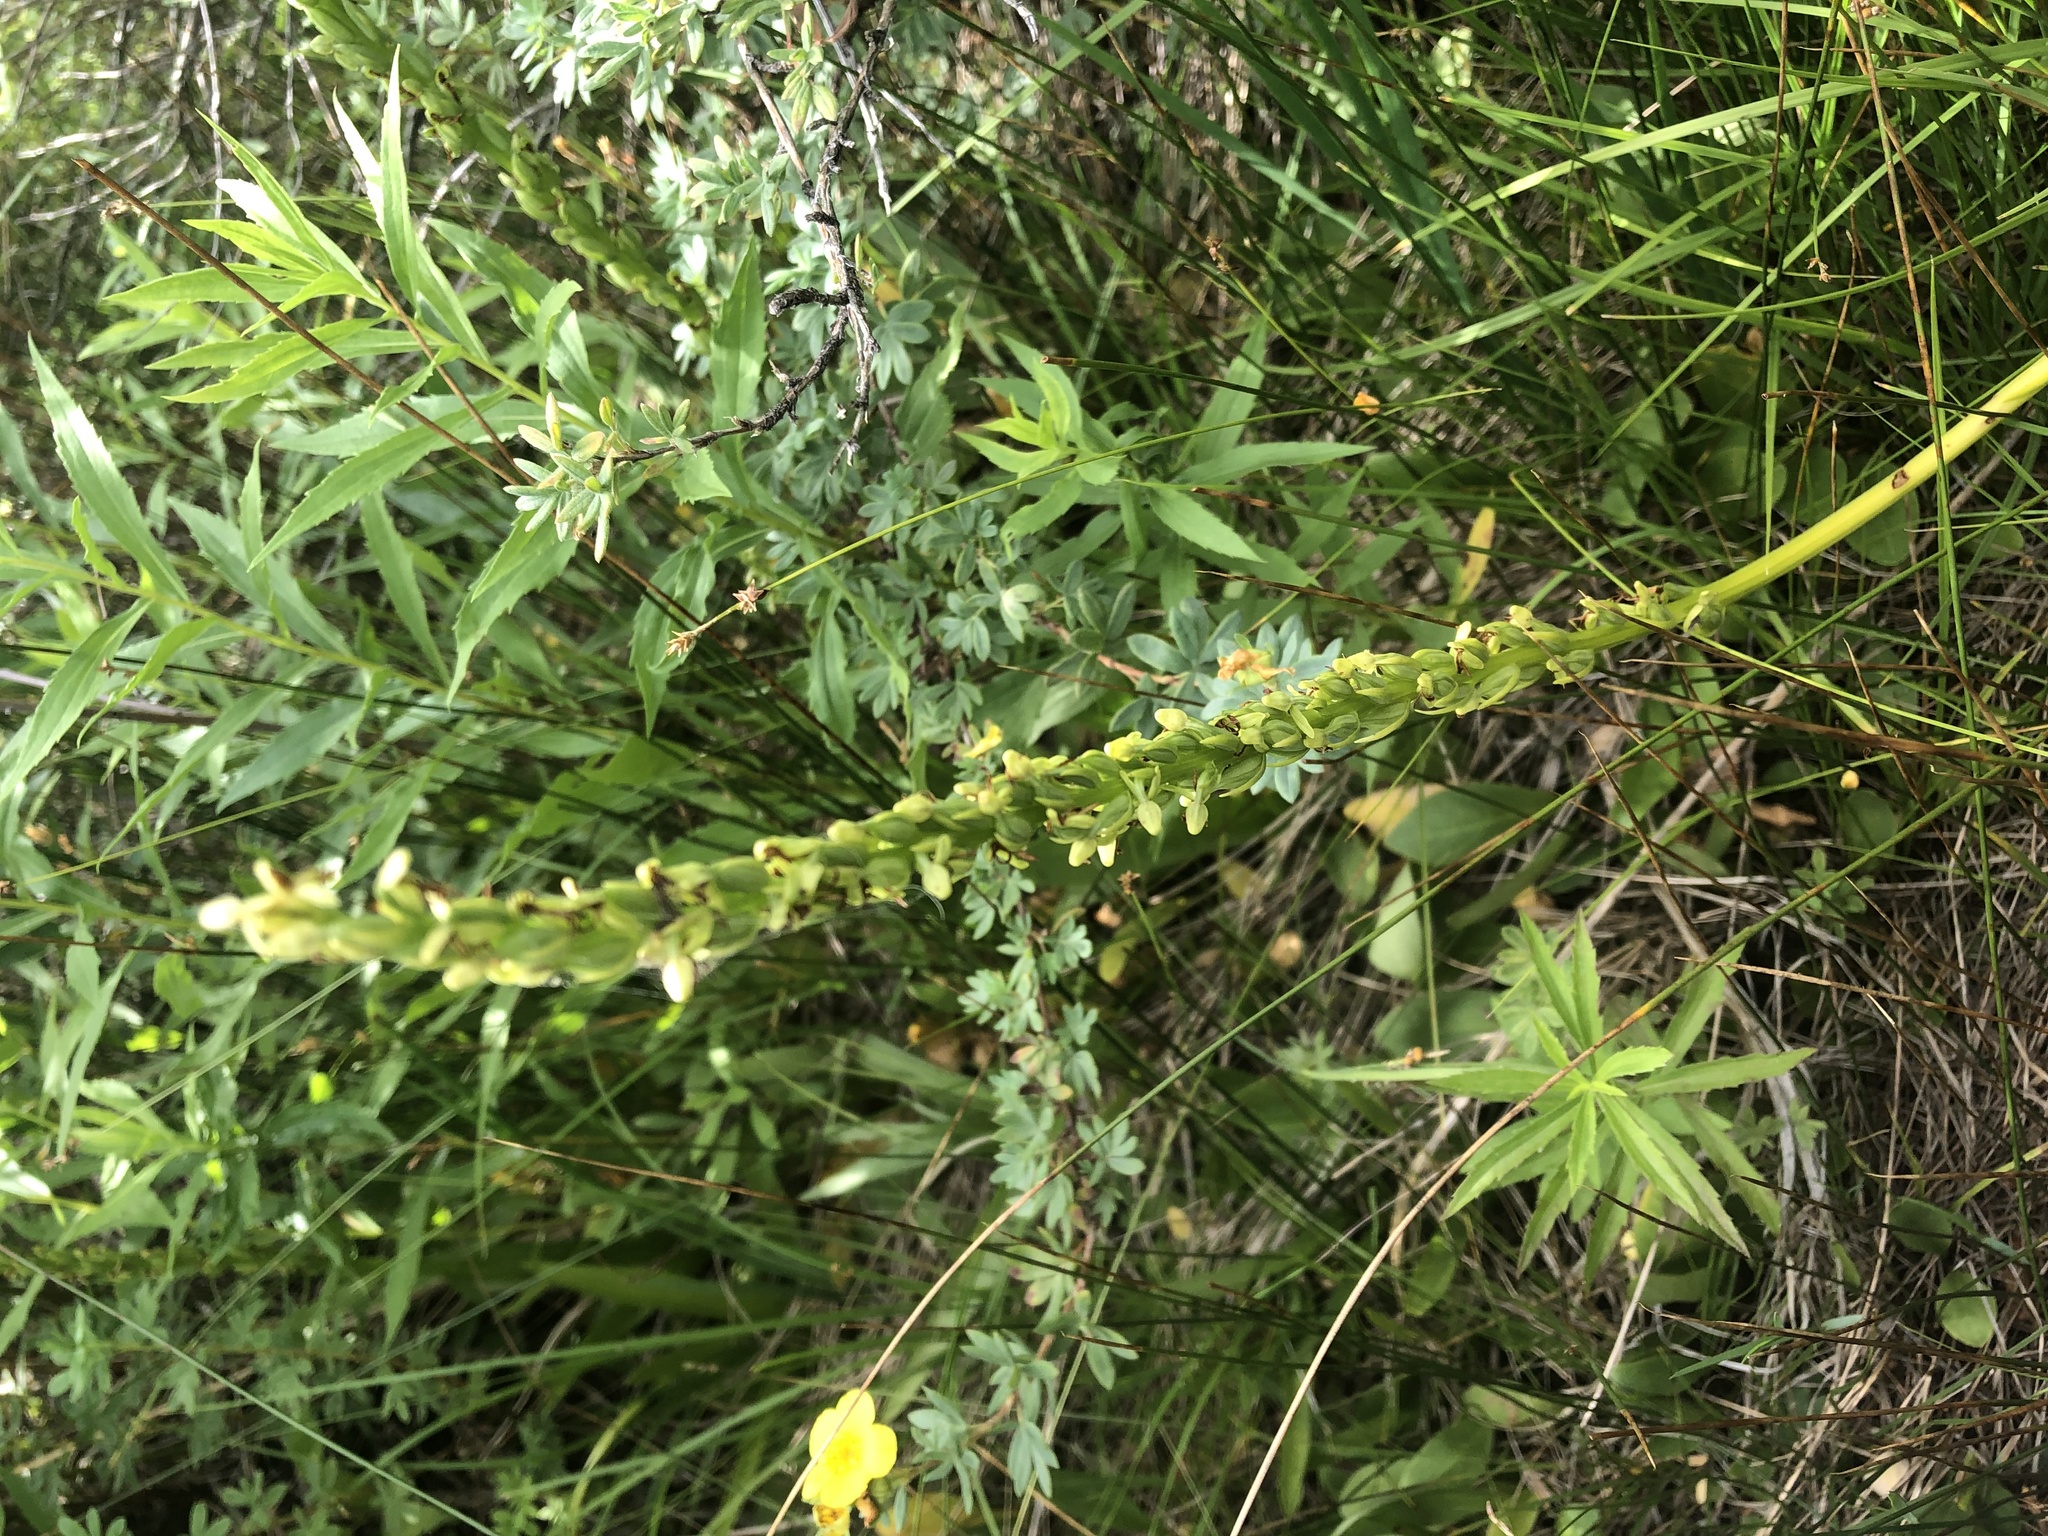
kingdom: Plantae
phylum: Tracheophyta
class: Liliopsida
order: Asparagales
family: Orchidaceae
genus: Platanthera
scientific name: Platanthera sparsiflora
